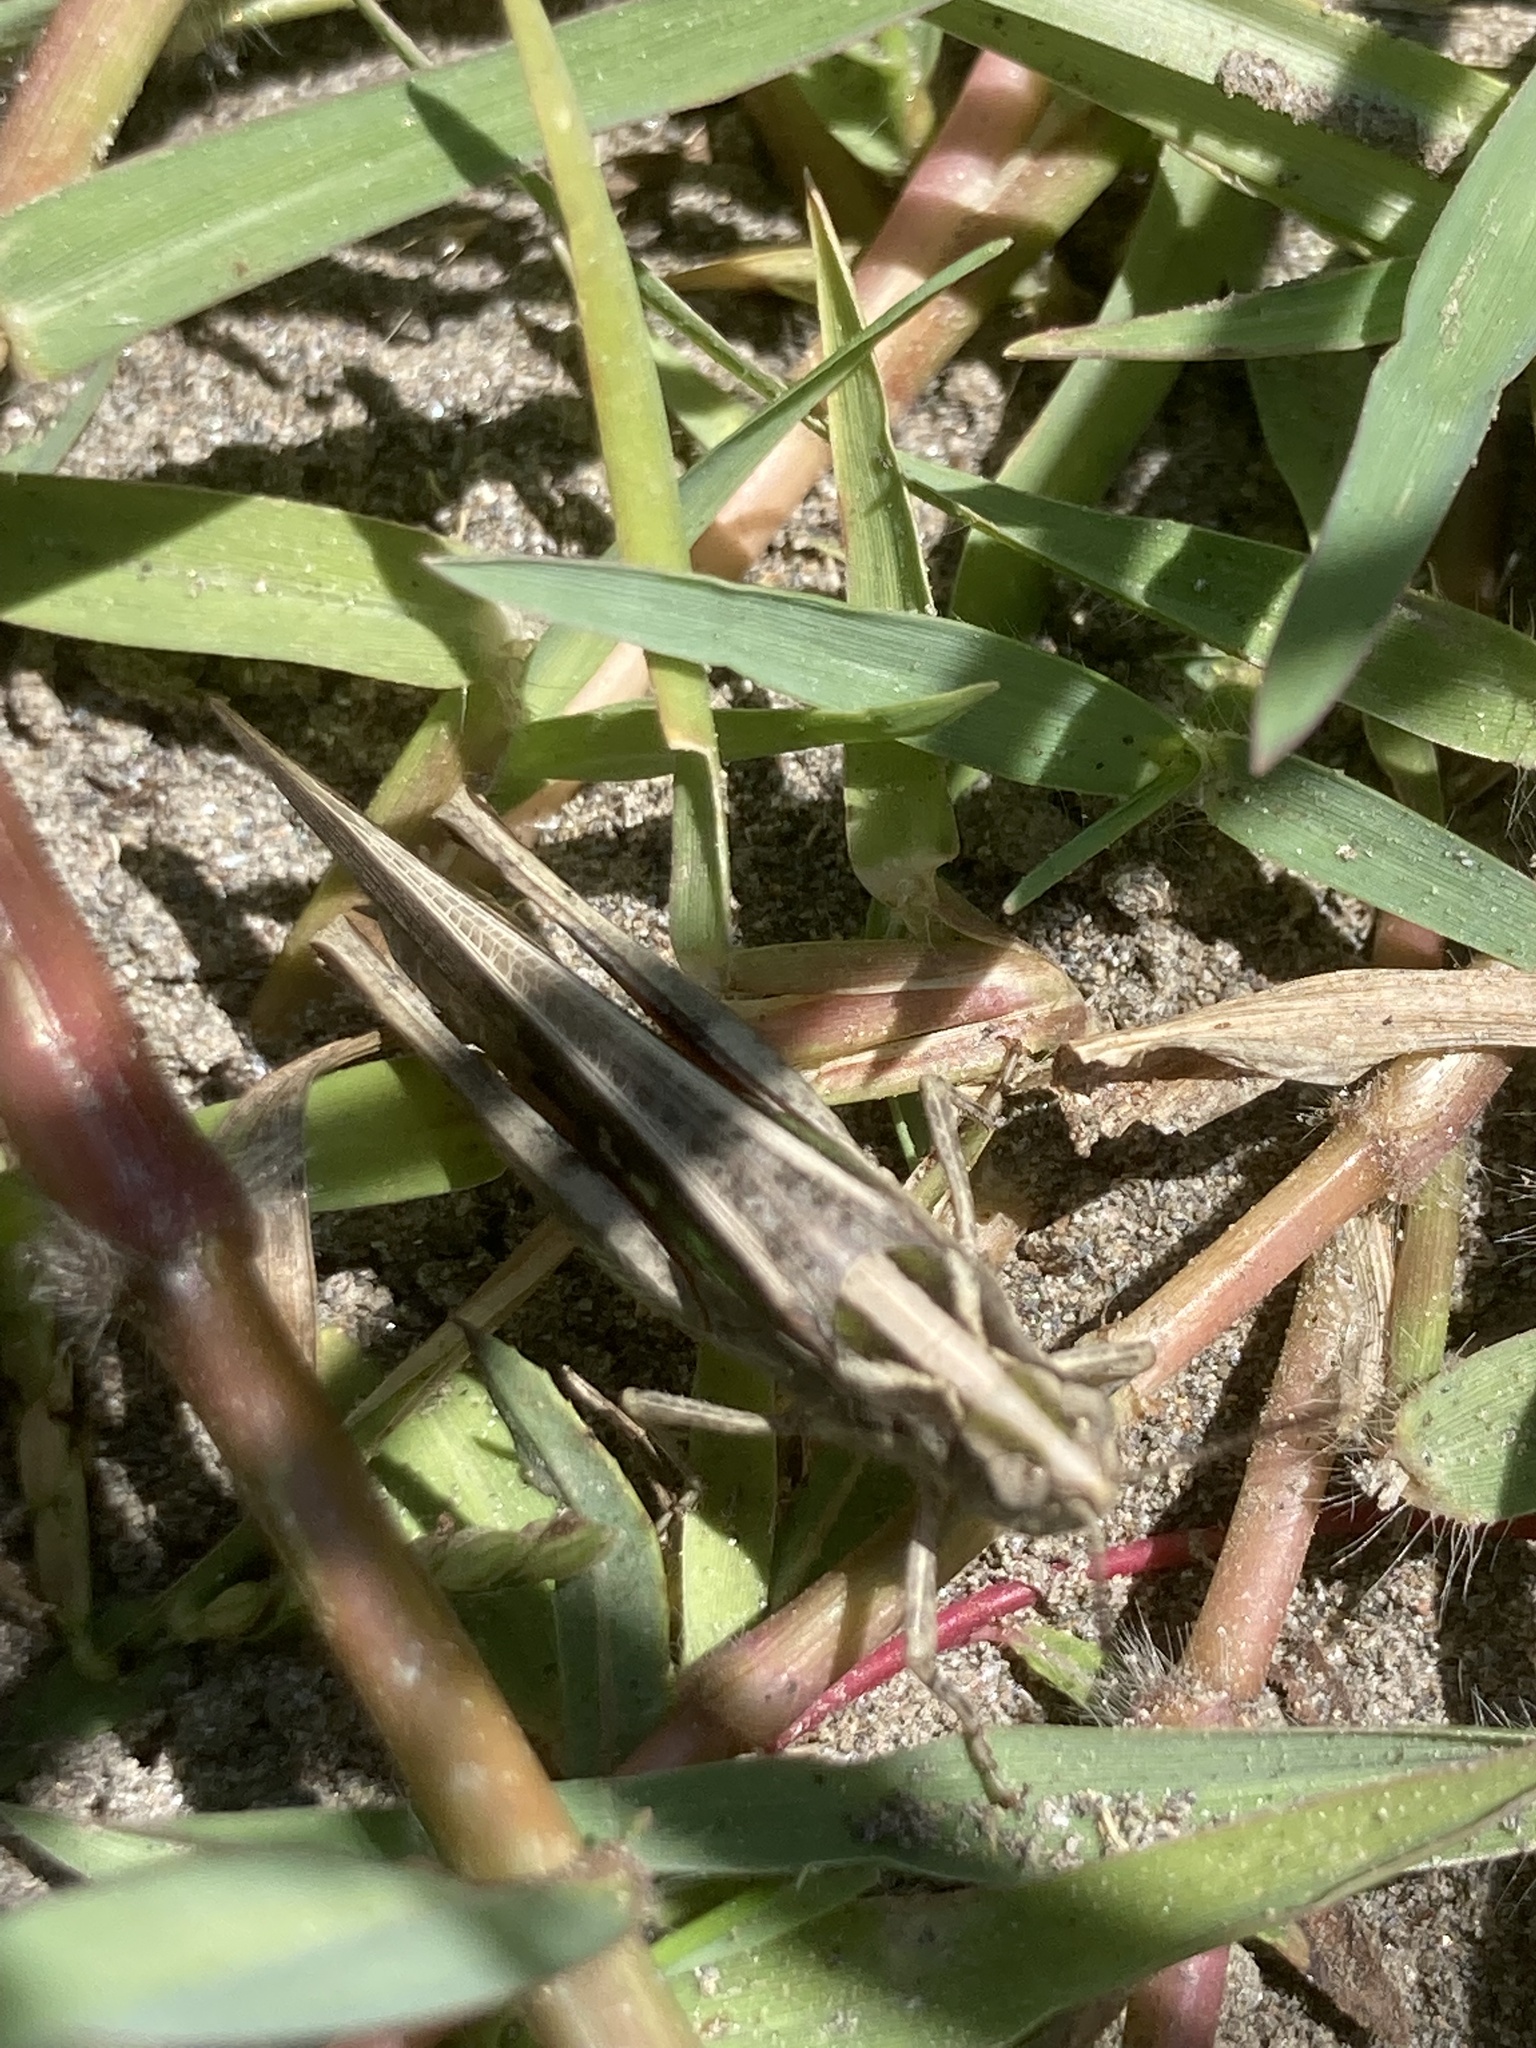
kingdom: Animalia
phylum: Arthropoda
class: Insecta
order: Orthoptera
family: Acrididae
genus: Aiolopus
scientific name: Aiolopus puissanti
